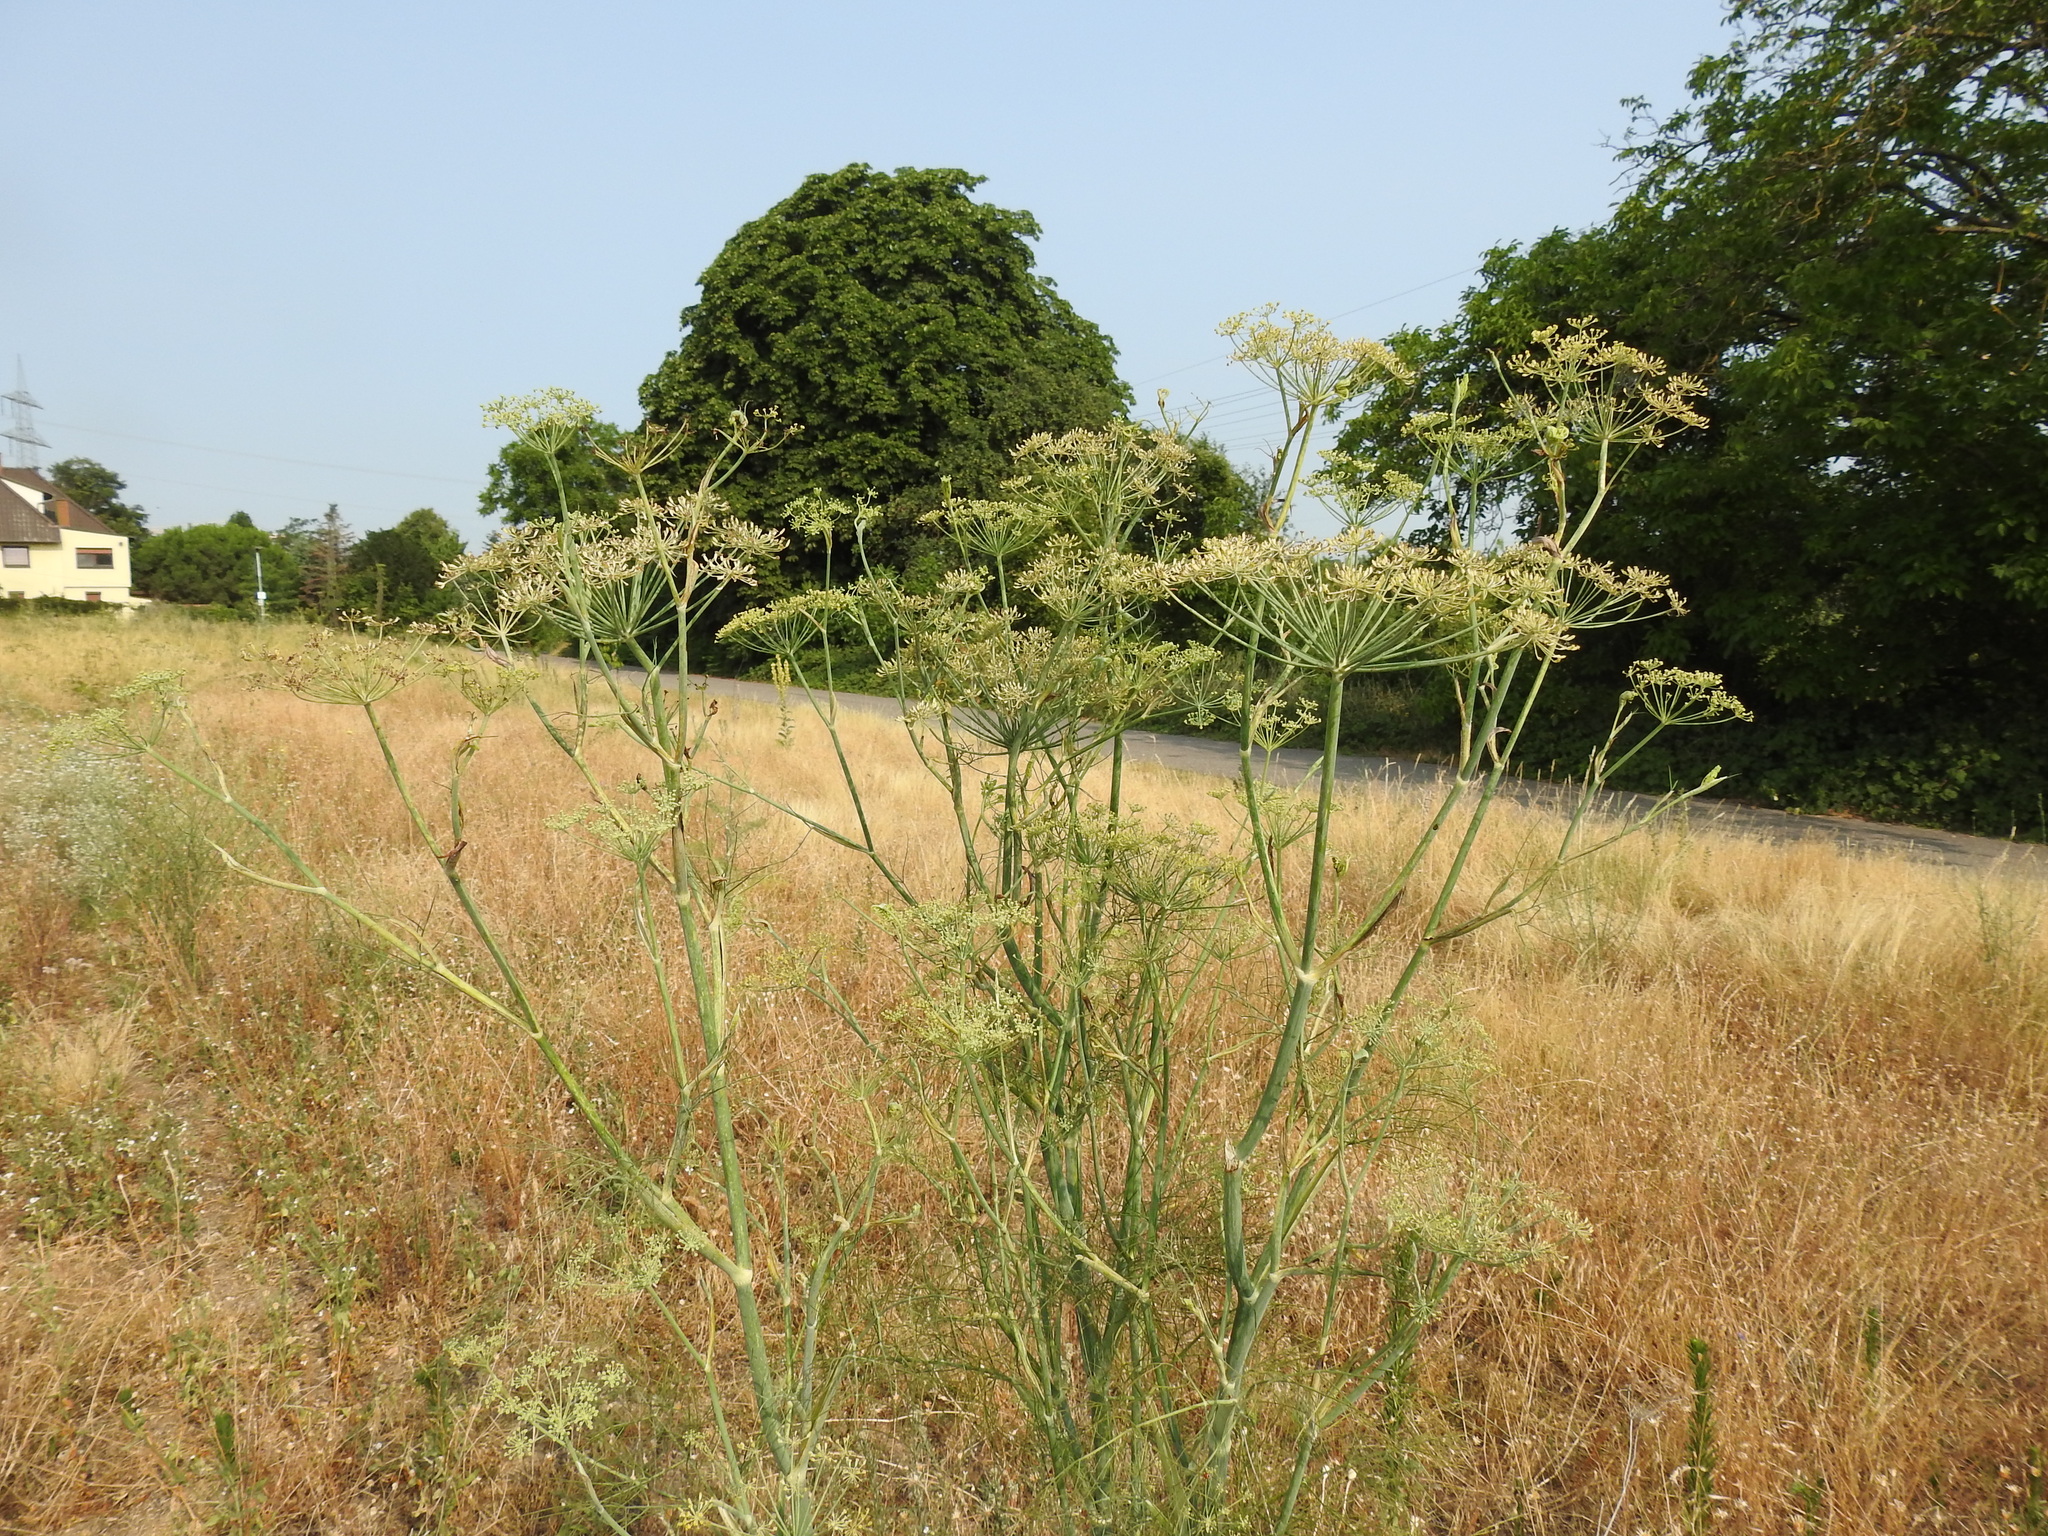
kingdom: Plantae
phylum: Tracheophyta
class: Magnoliopsida
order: Apiales
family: Apiaceae
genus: Foeniculum
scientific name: Foeniculum vulgare
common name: Fennel
